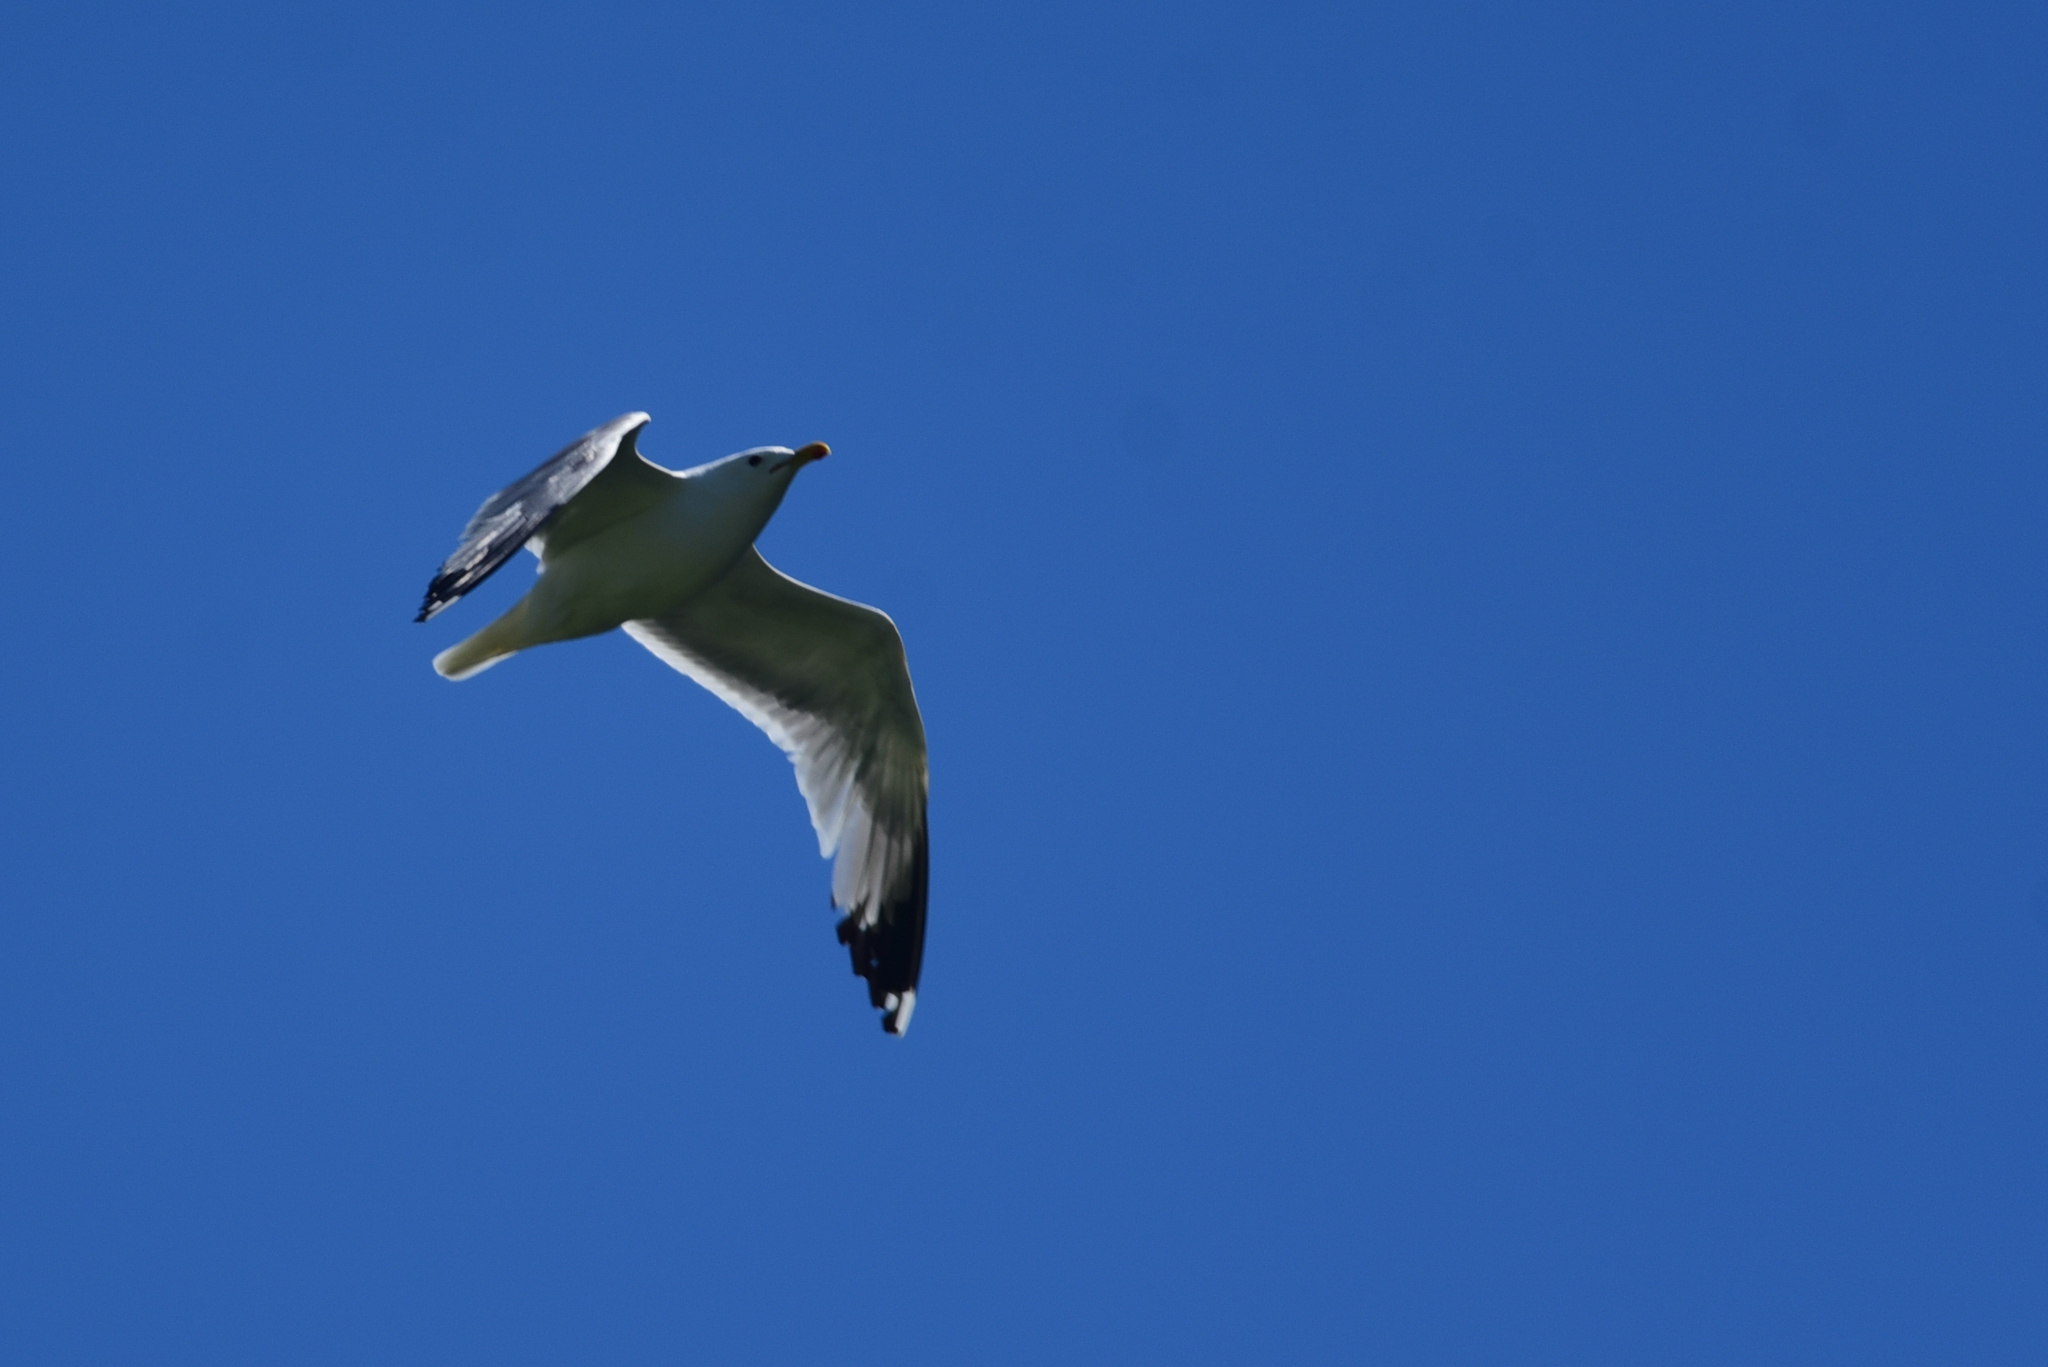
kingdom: Animalia
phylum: Chordata
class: Aves
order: Charadriiformes
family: Laridae
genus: Larus
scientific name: Larus californicus
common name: California gull
